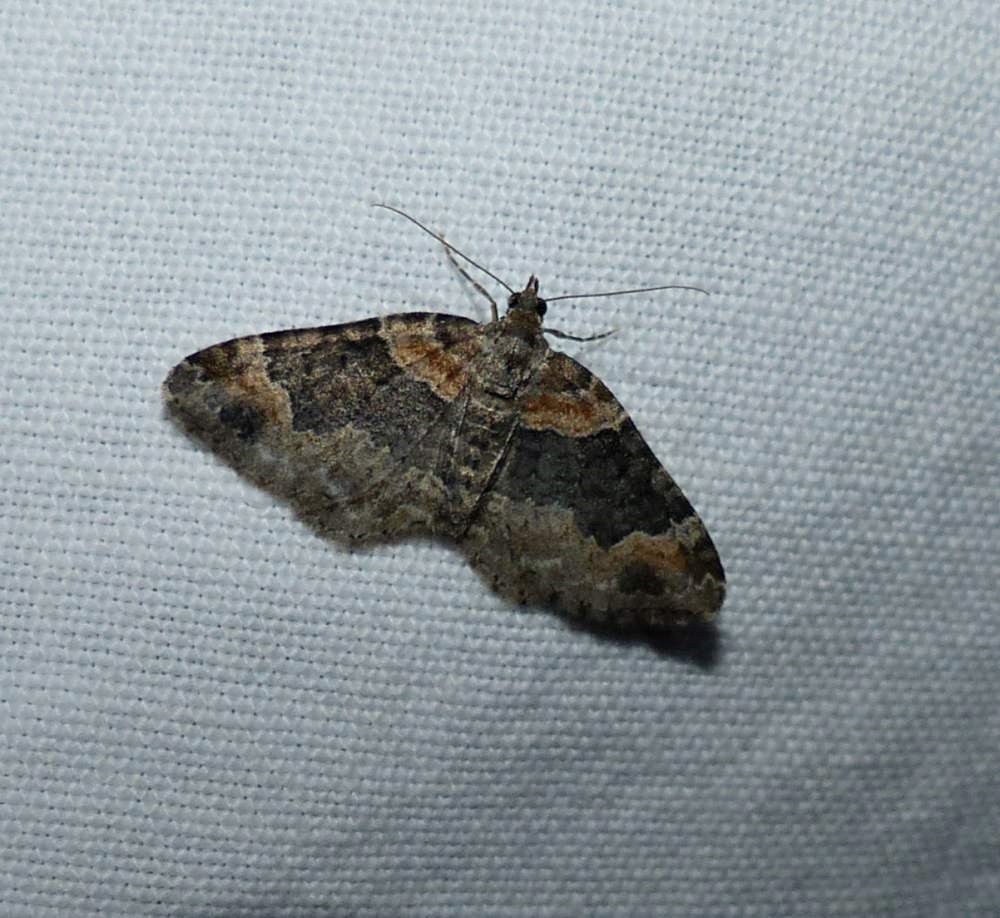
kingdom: Animalia
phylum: Arthropoda
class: Insecta
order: Lepidoptera
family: Geometridae
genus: Xanthorhoe
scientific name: Xanthorhoe ferrugata
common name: Dark-barred twin-spot carpet
